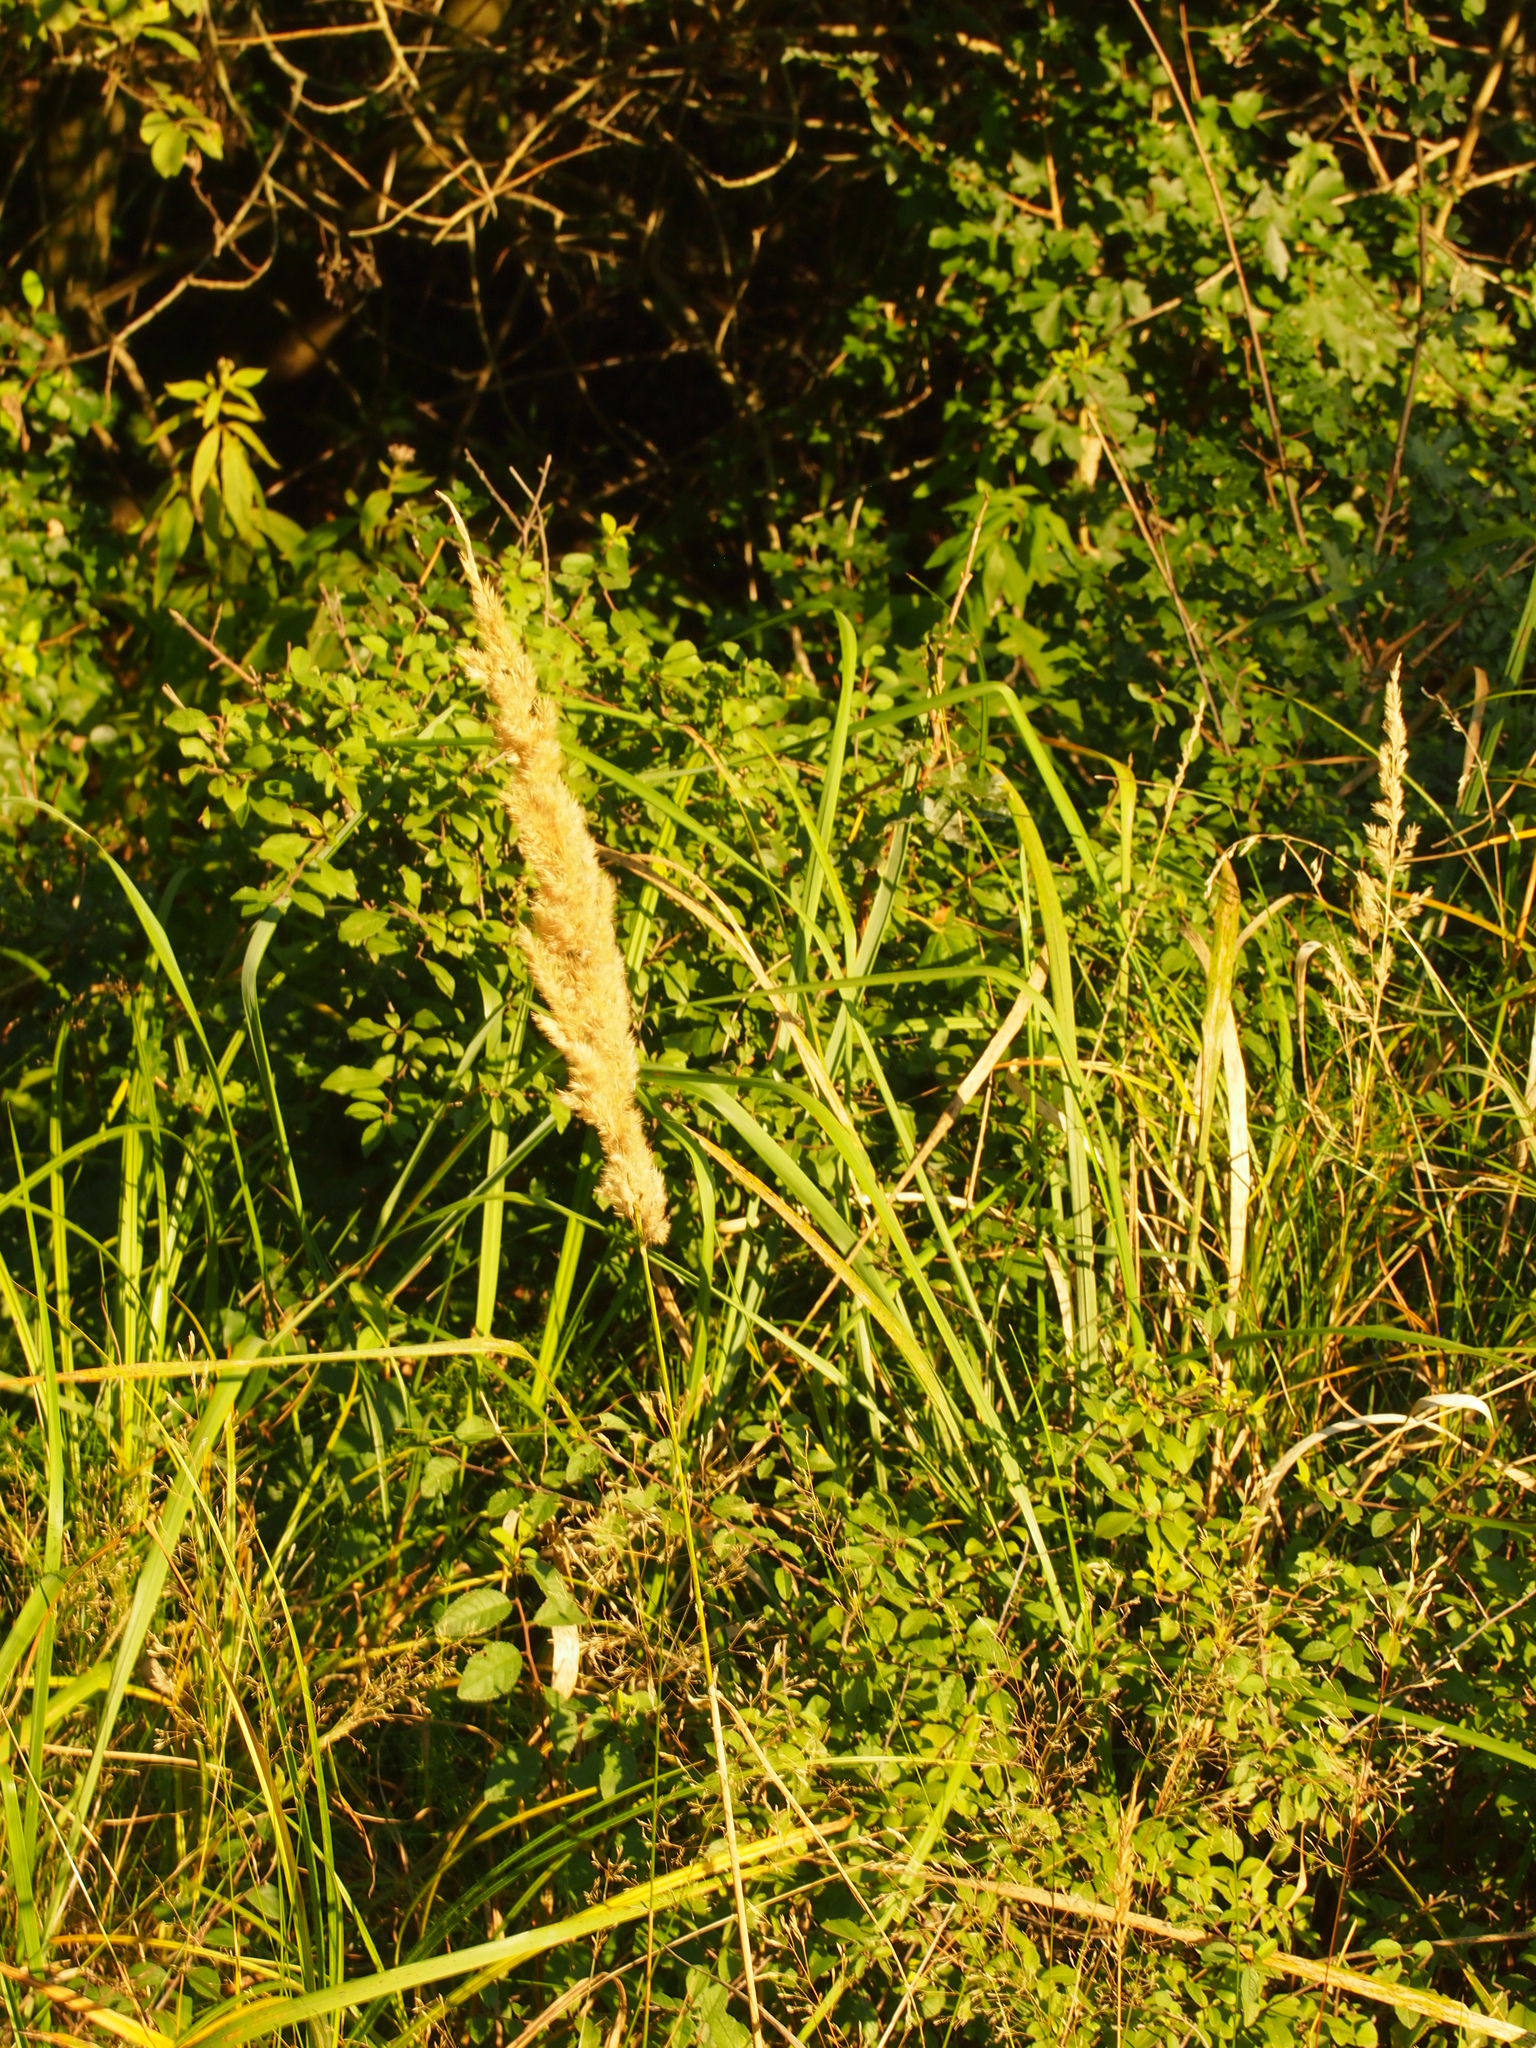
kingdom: Plantae
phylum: Tracheophyta
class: Liliopsida
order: Poales
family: Poaceae
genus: Calamagrostis
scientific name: Calamagrostis epigejos
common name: Wood small-reed
